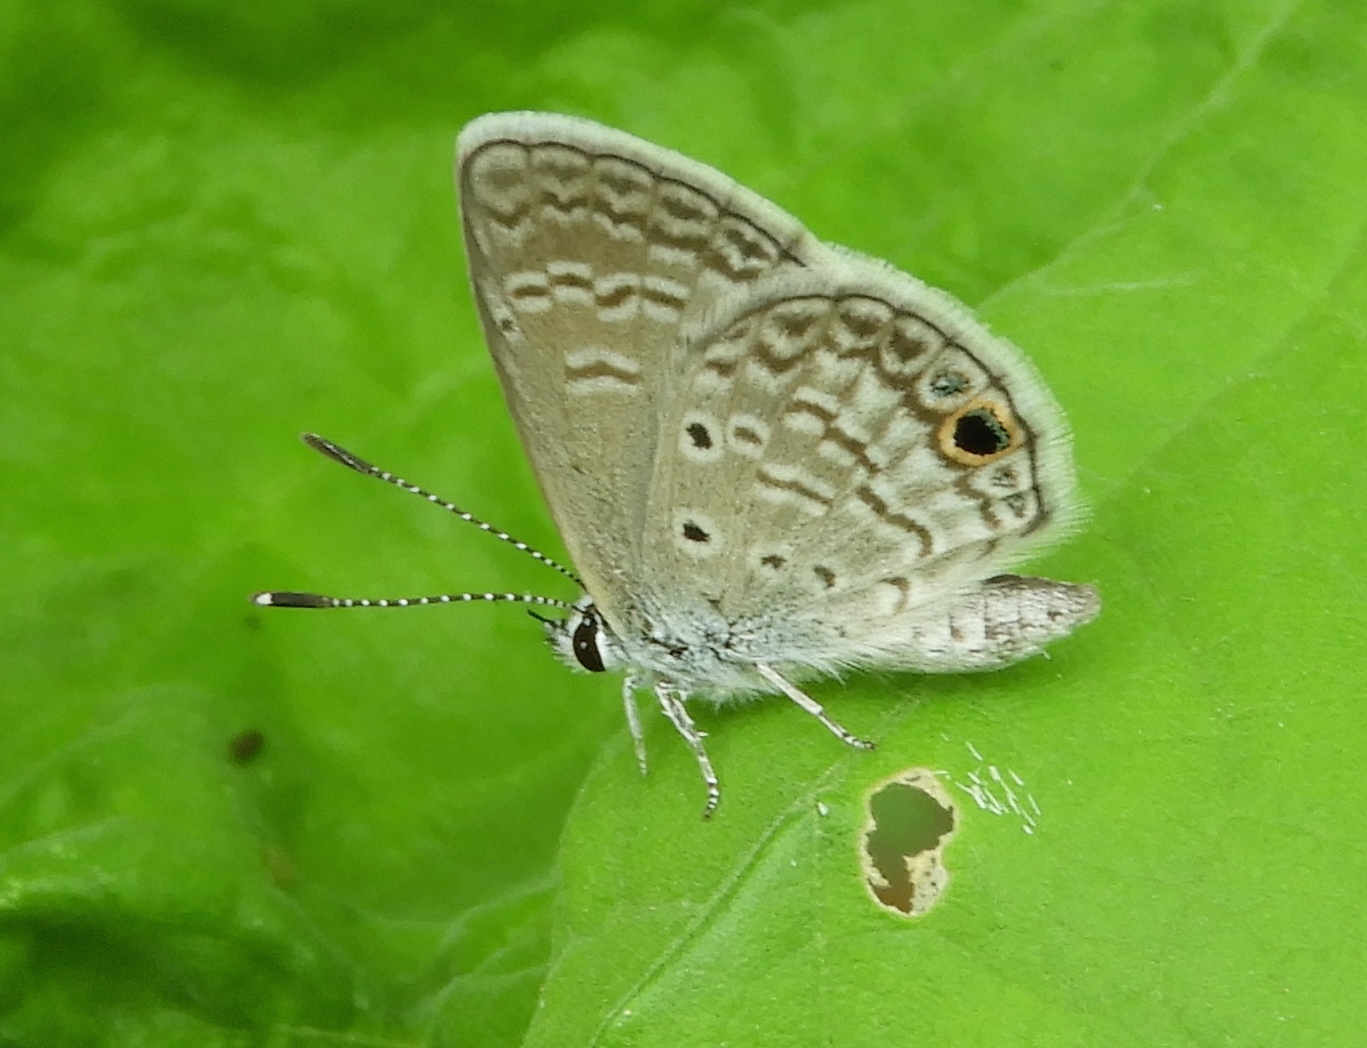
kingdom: Animalia
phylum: Arthropoda
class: Insecta
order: Lepidoptera
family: Lycaenidae
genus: Echinargus
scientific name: Echinargus isola
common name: Reakirt's blue
